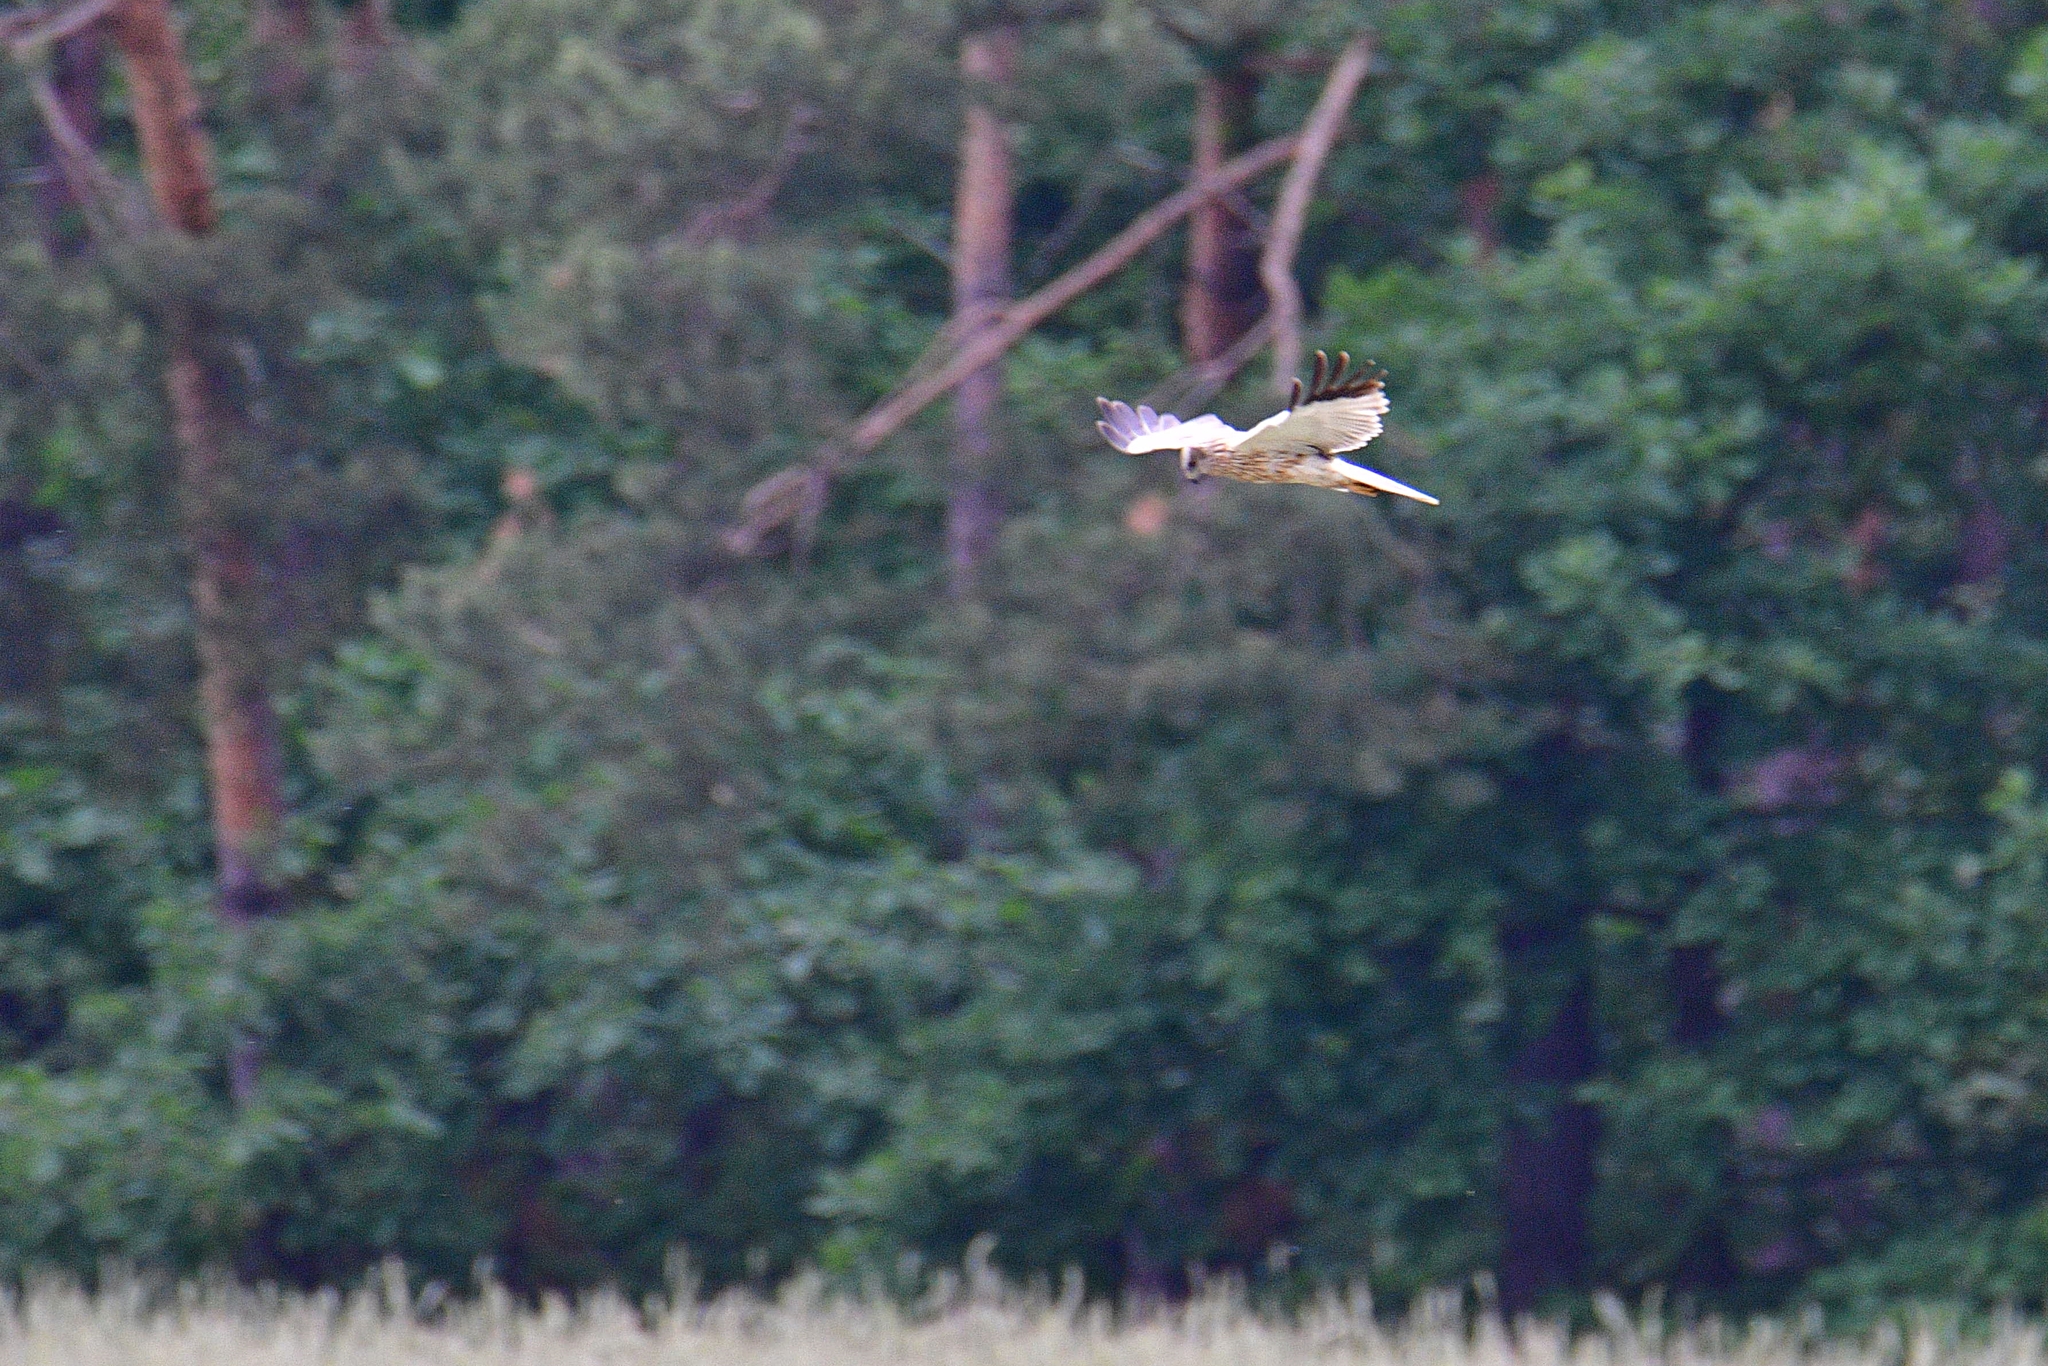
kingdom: Animalia
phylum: Chordata
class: Aves
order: Accipitriformes
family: Accipitridae
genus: Circus
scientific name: Circus aeruginosus
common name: Western marsh harrier
